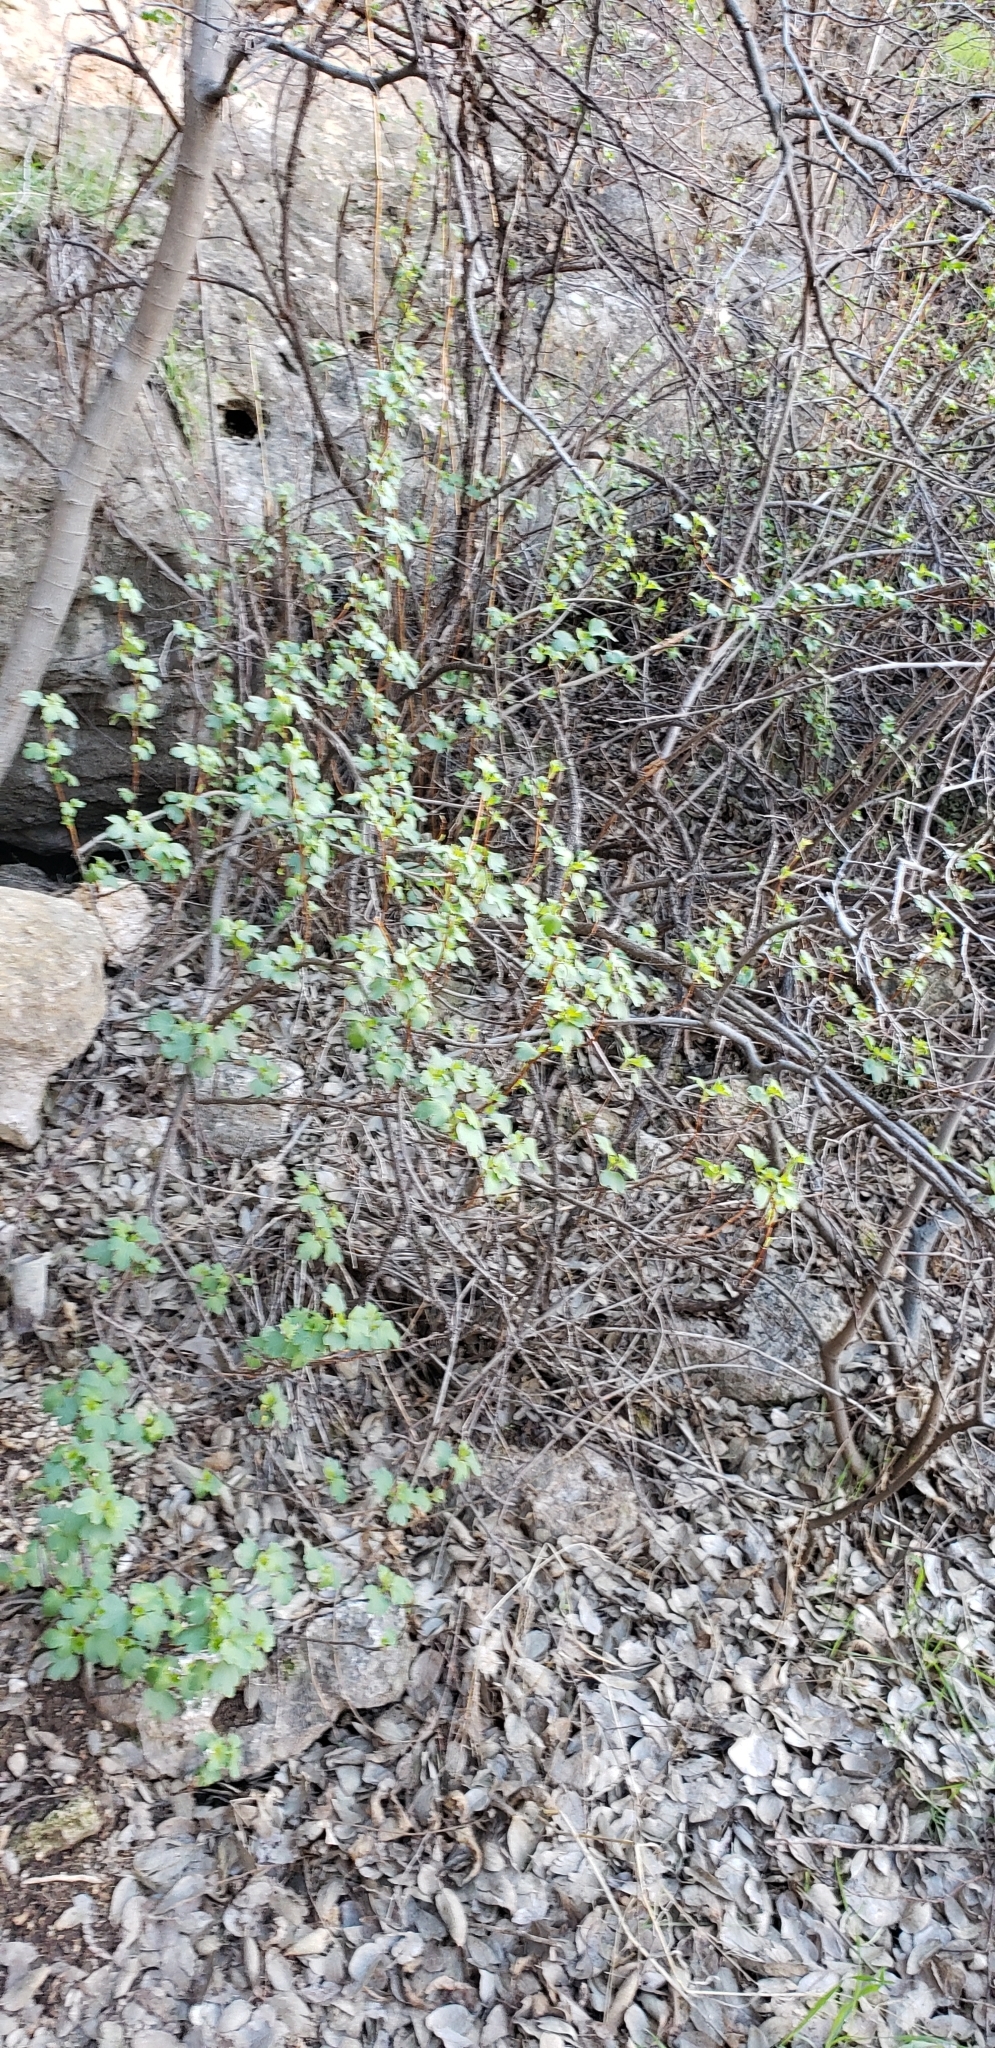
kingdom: Plantae
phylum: Tracheophyta
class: Magnoliopsida
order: Saxifragales
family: Grossulariaceae
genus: Ribes
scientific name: Ribes aureum
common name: Golden currant
